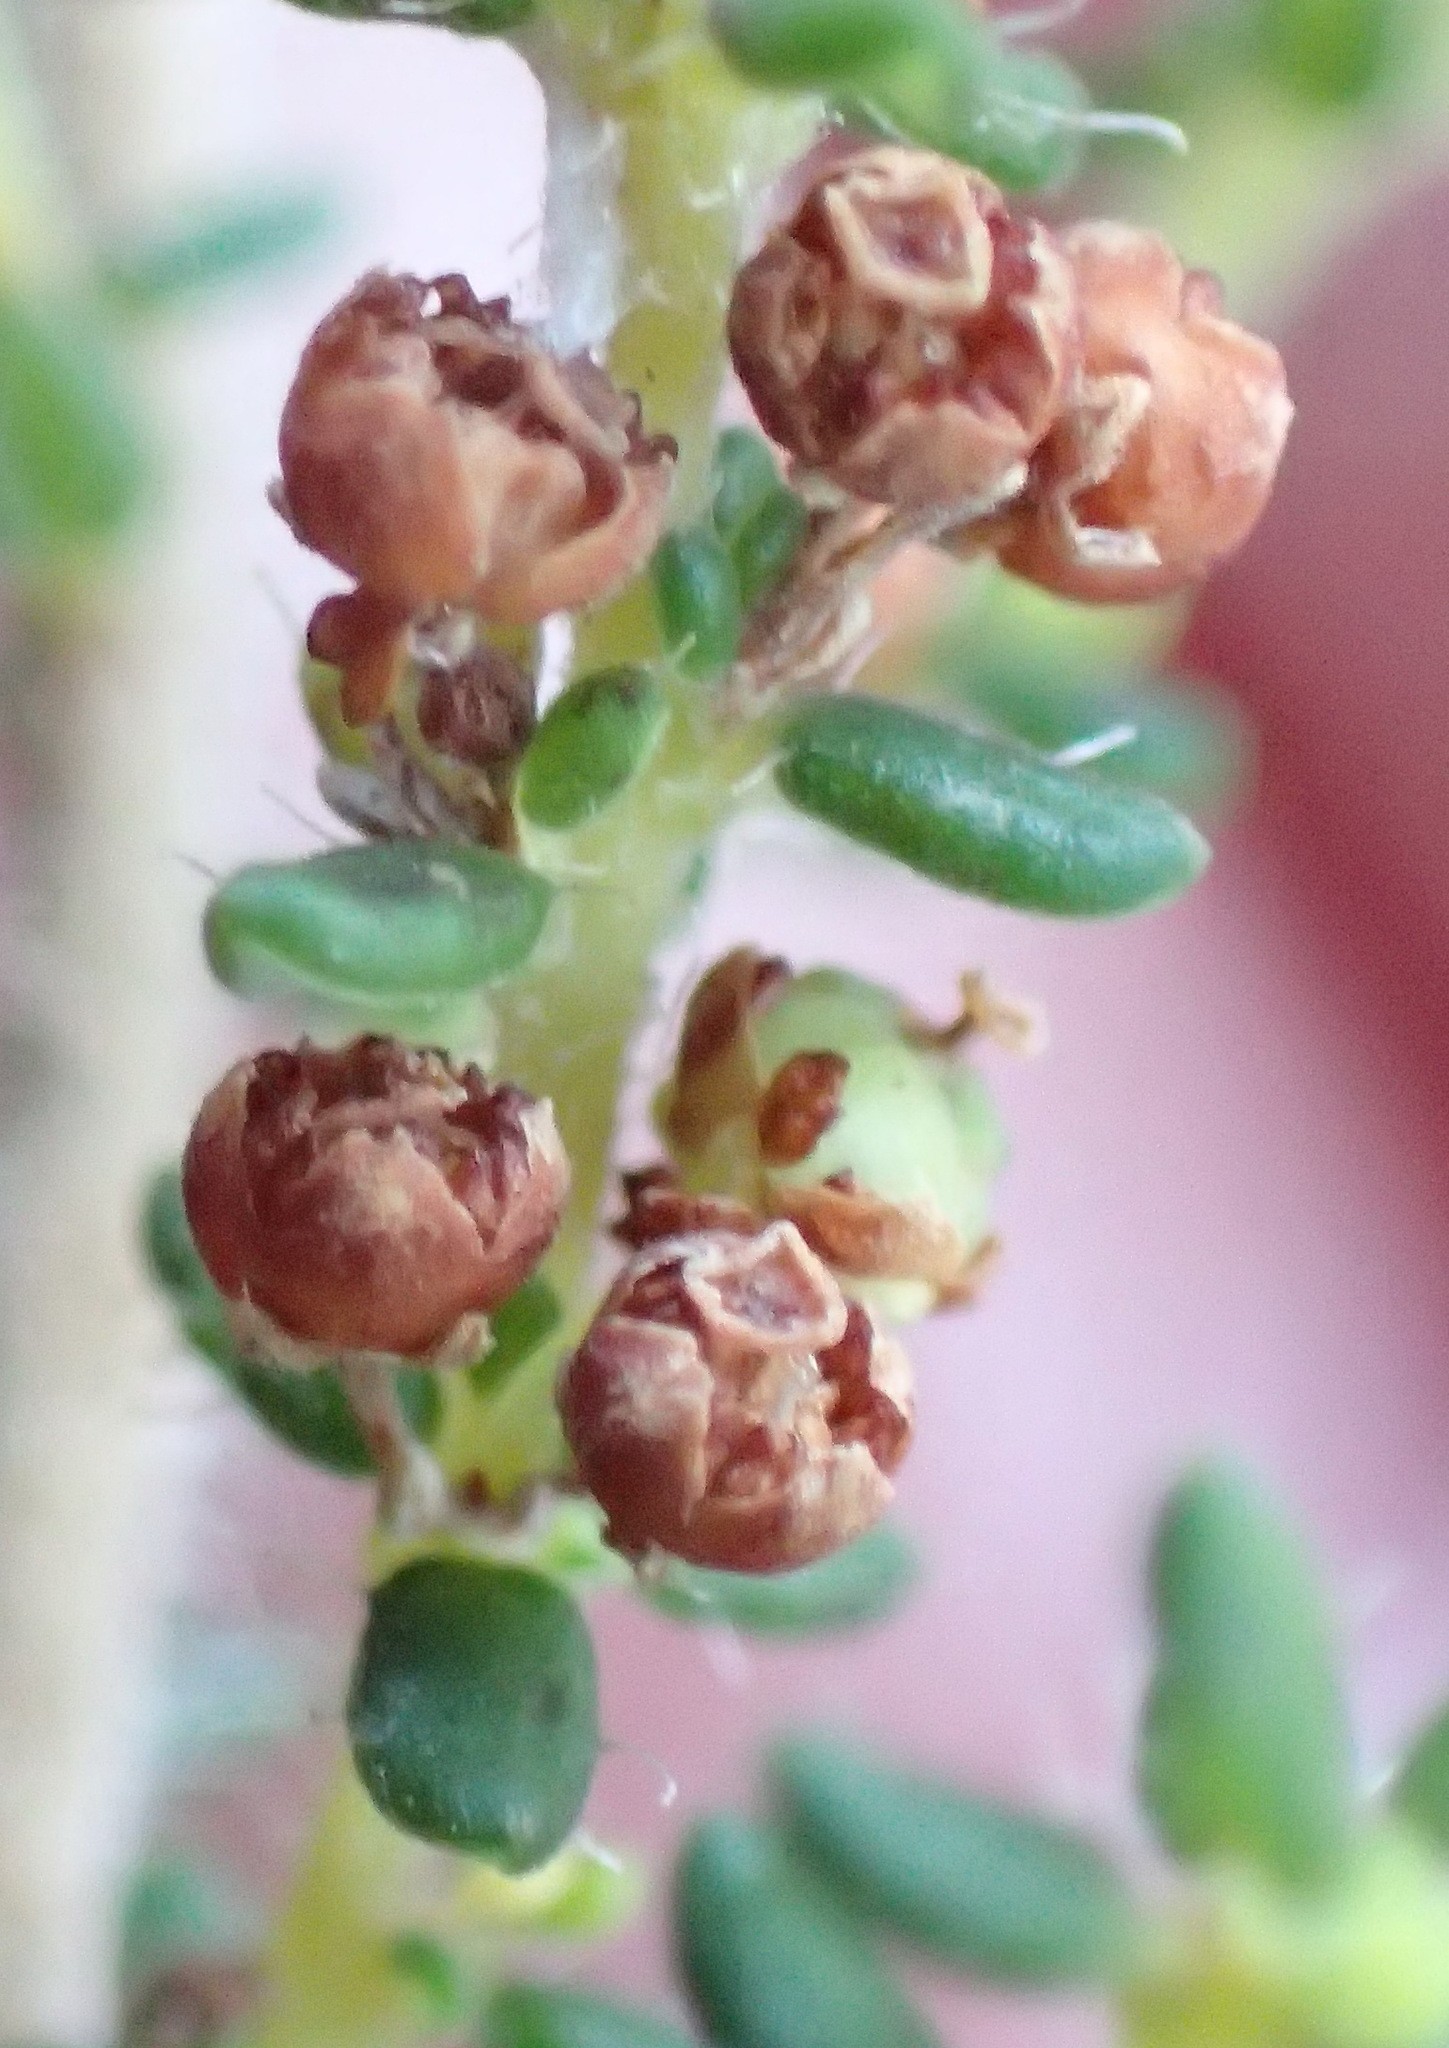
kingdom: Plantae
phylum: Tracheophyta
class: Magnoliopsida
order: Ericales
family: Ericaceae
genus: Erica
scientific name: Erica leucopelta
